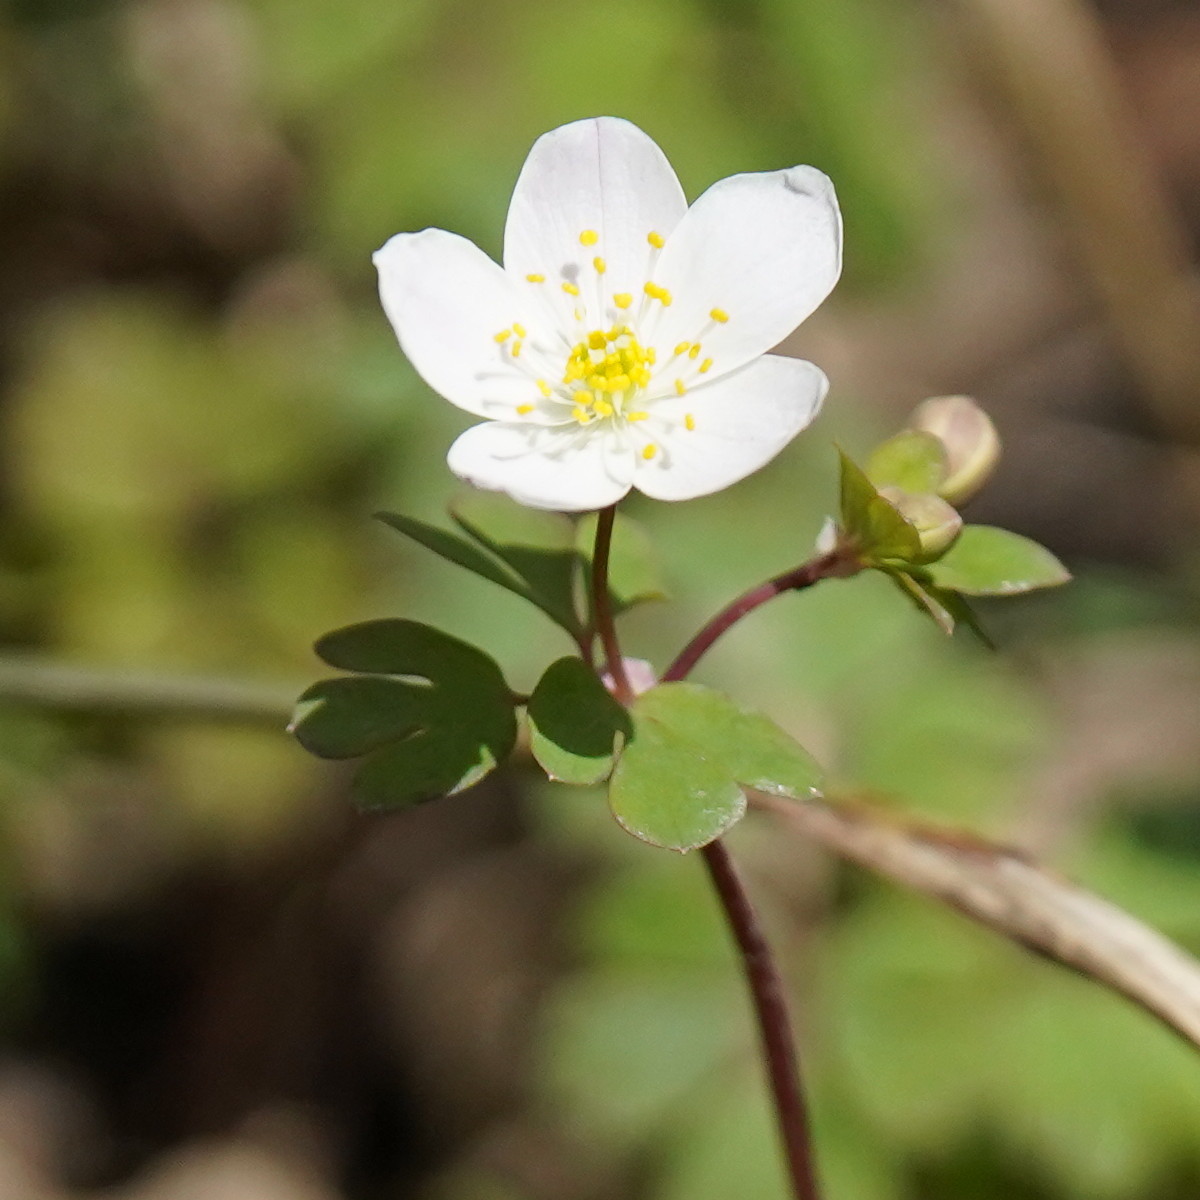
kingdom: Plantae
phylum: Tracheophyta
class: Magnoliopsida
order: Ranunculales
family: Ranunculaceae
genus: Enemion
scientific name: Enemion biternatum
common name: Eastern false rue-anemone
